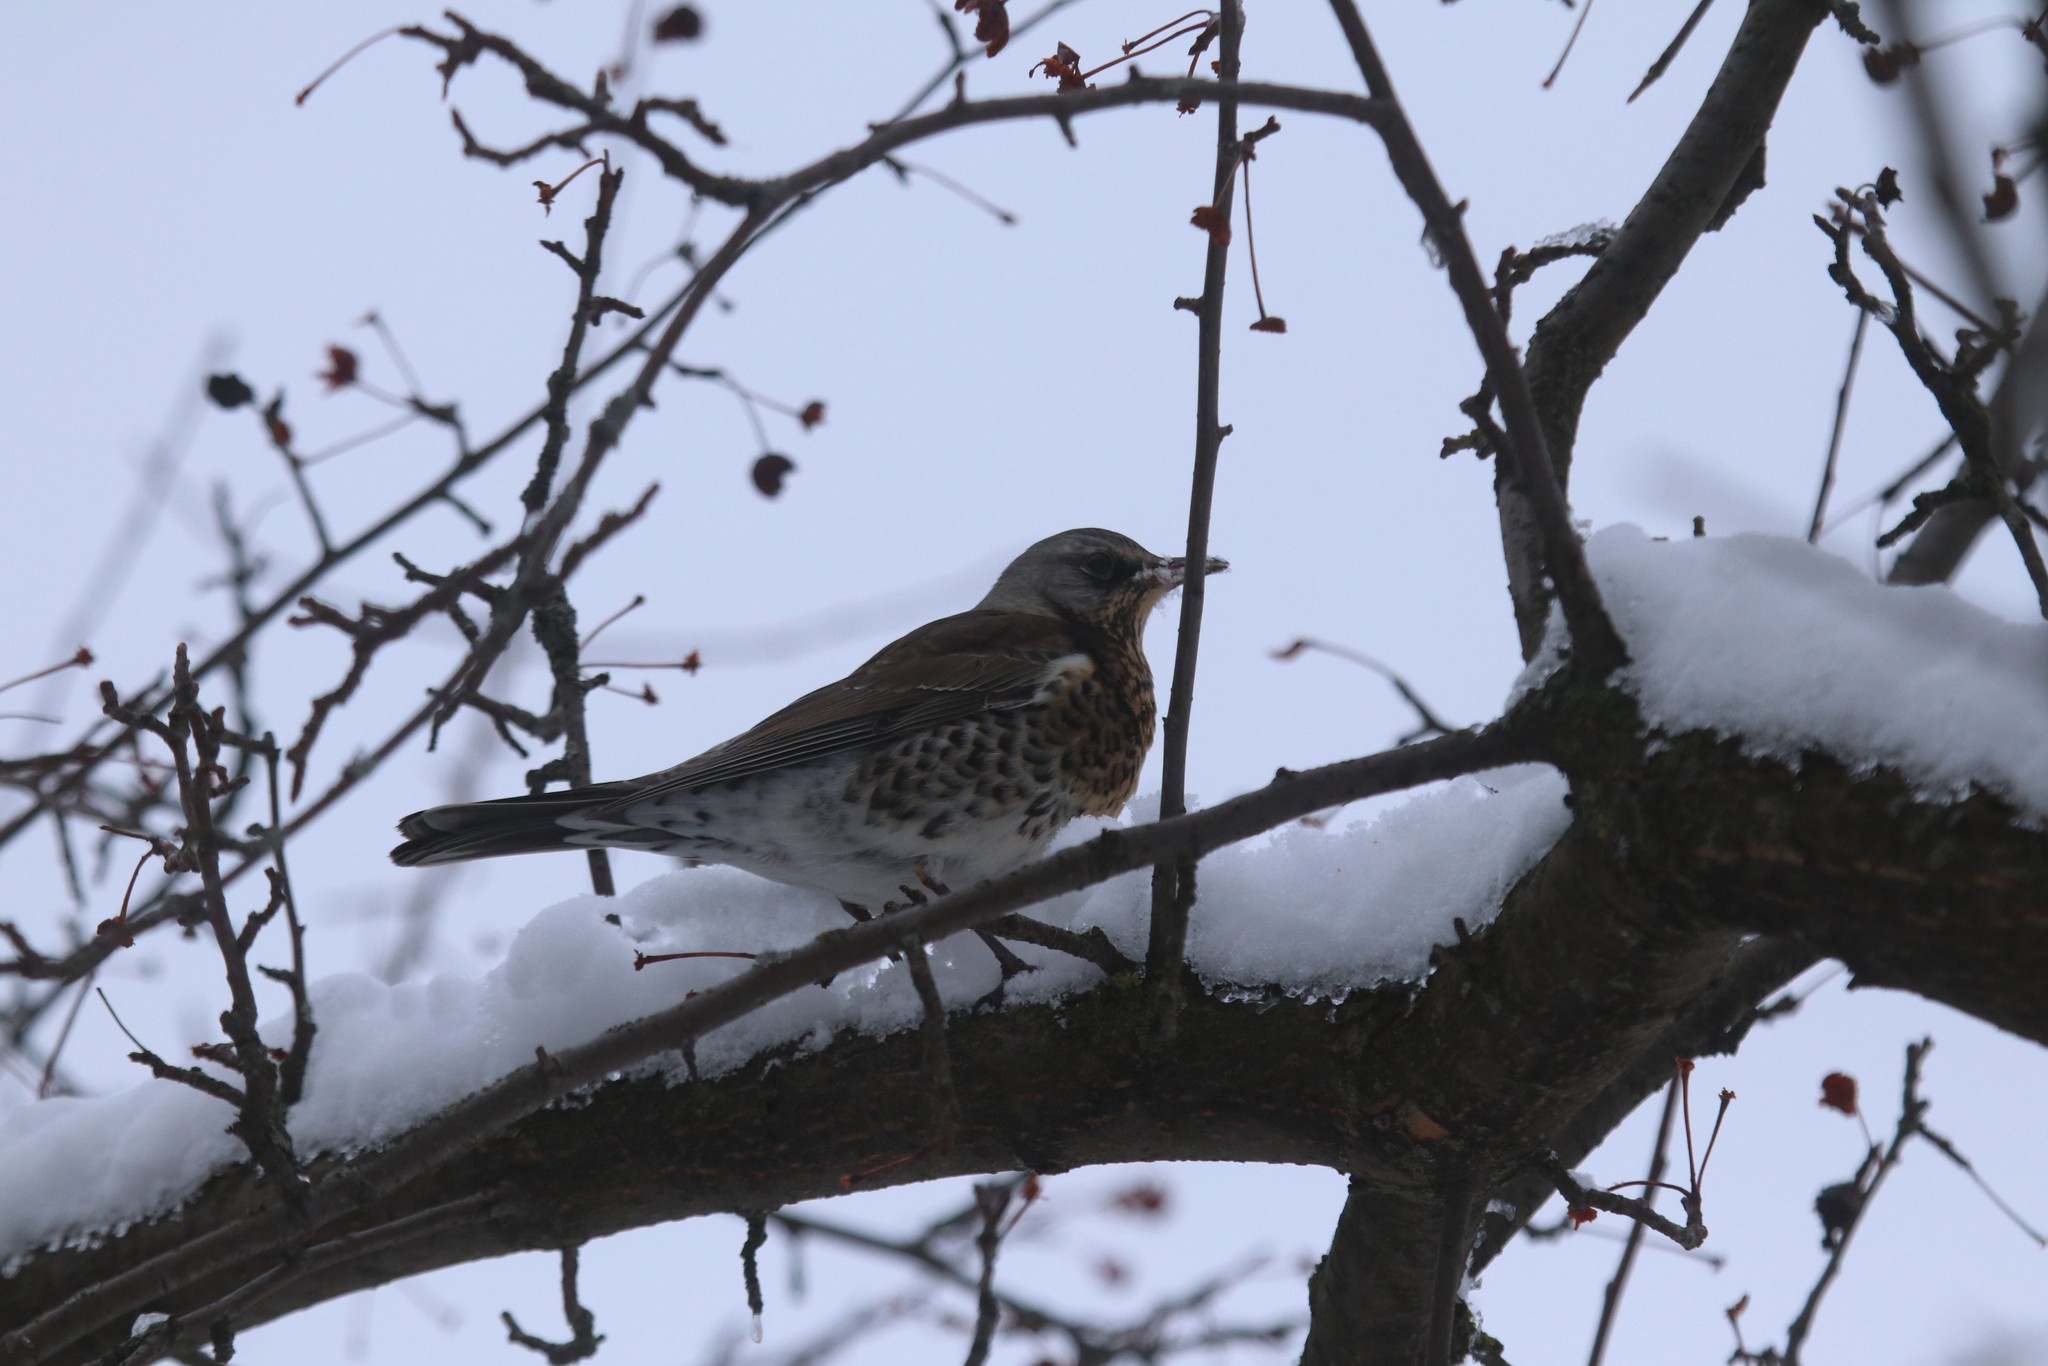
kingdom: Animalia
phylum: Chordata
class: Aves
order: Passeriformes
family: Turdidae
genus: Turdus
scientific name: Turdus pilaris
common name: Fieldfare
